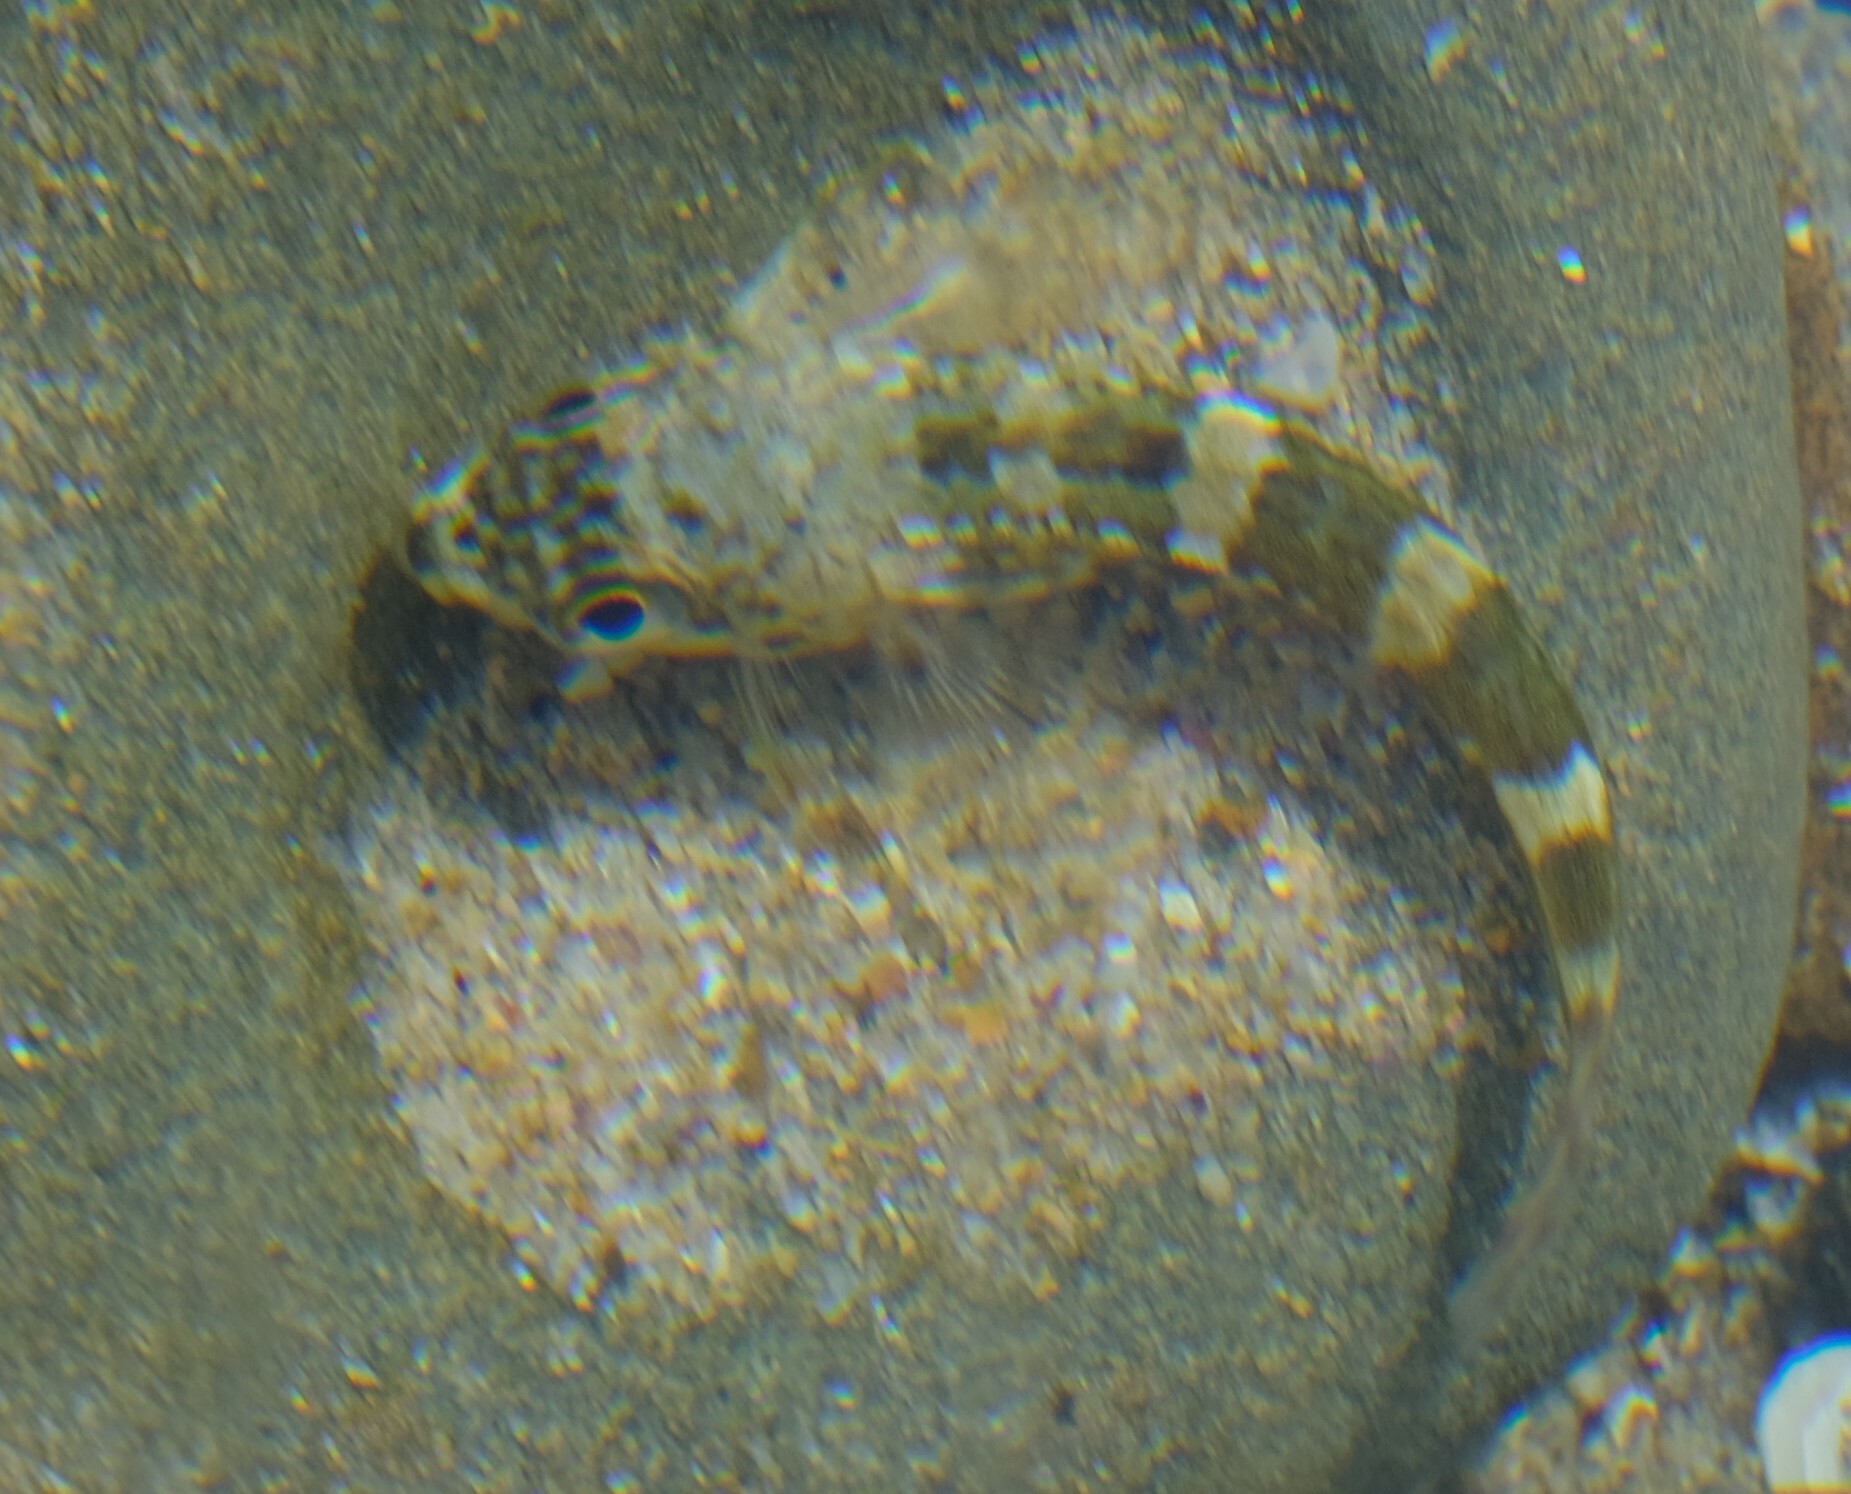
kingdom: Animalia
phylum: Chordata
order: Perciformes
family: Bovichtidae
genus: Bovichtus
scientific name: Bovichtus angustifrons
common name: Dragonet
